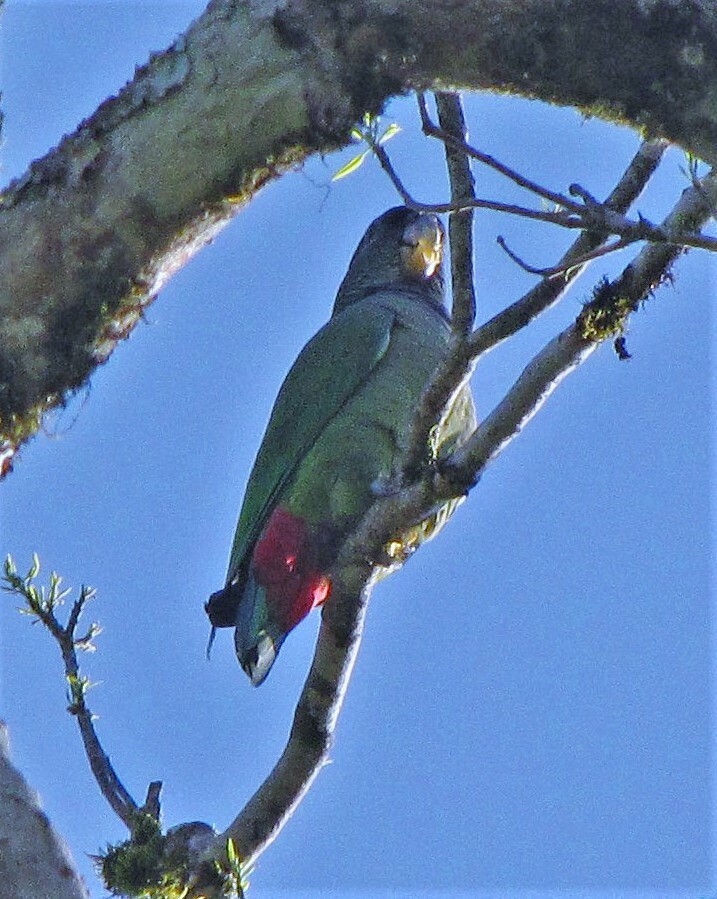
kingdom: Animalia
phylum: Chordata
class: Aves
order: Psittaciformes
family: Psittacidae
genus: Pionus
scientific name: Pionus maximiliani
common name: Scaly-headed parrot
